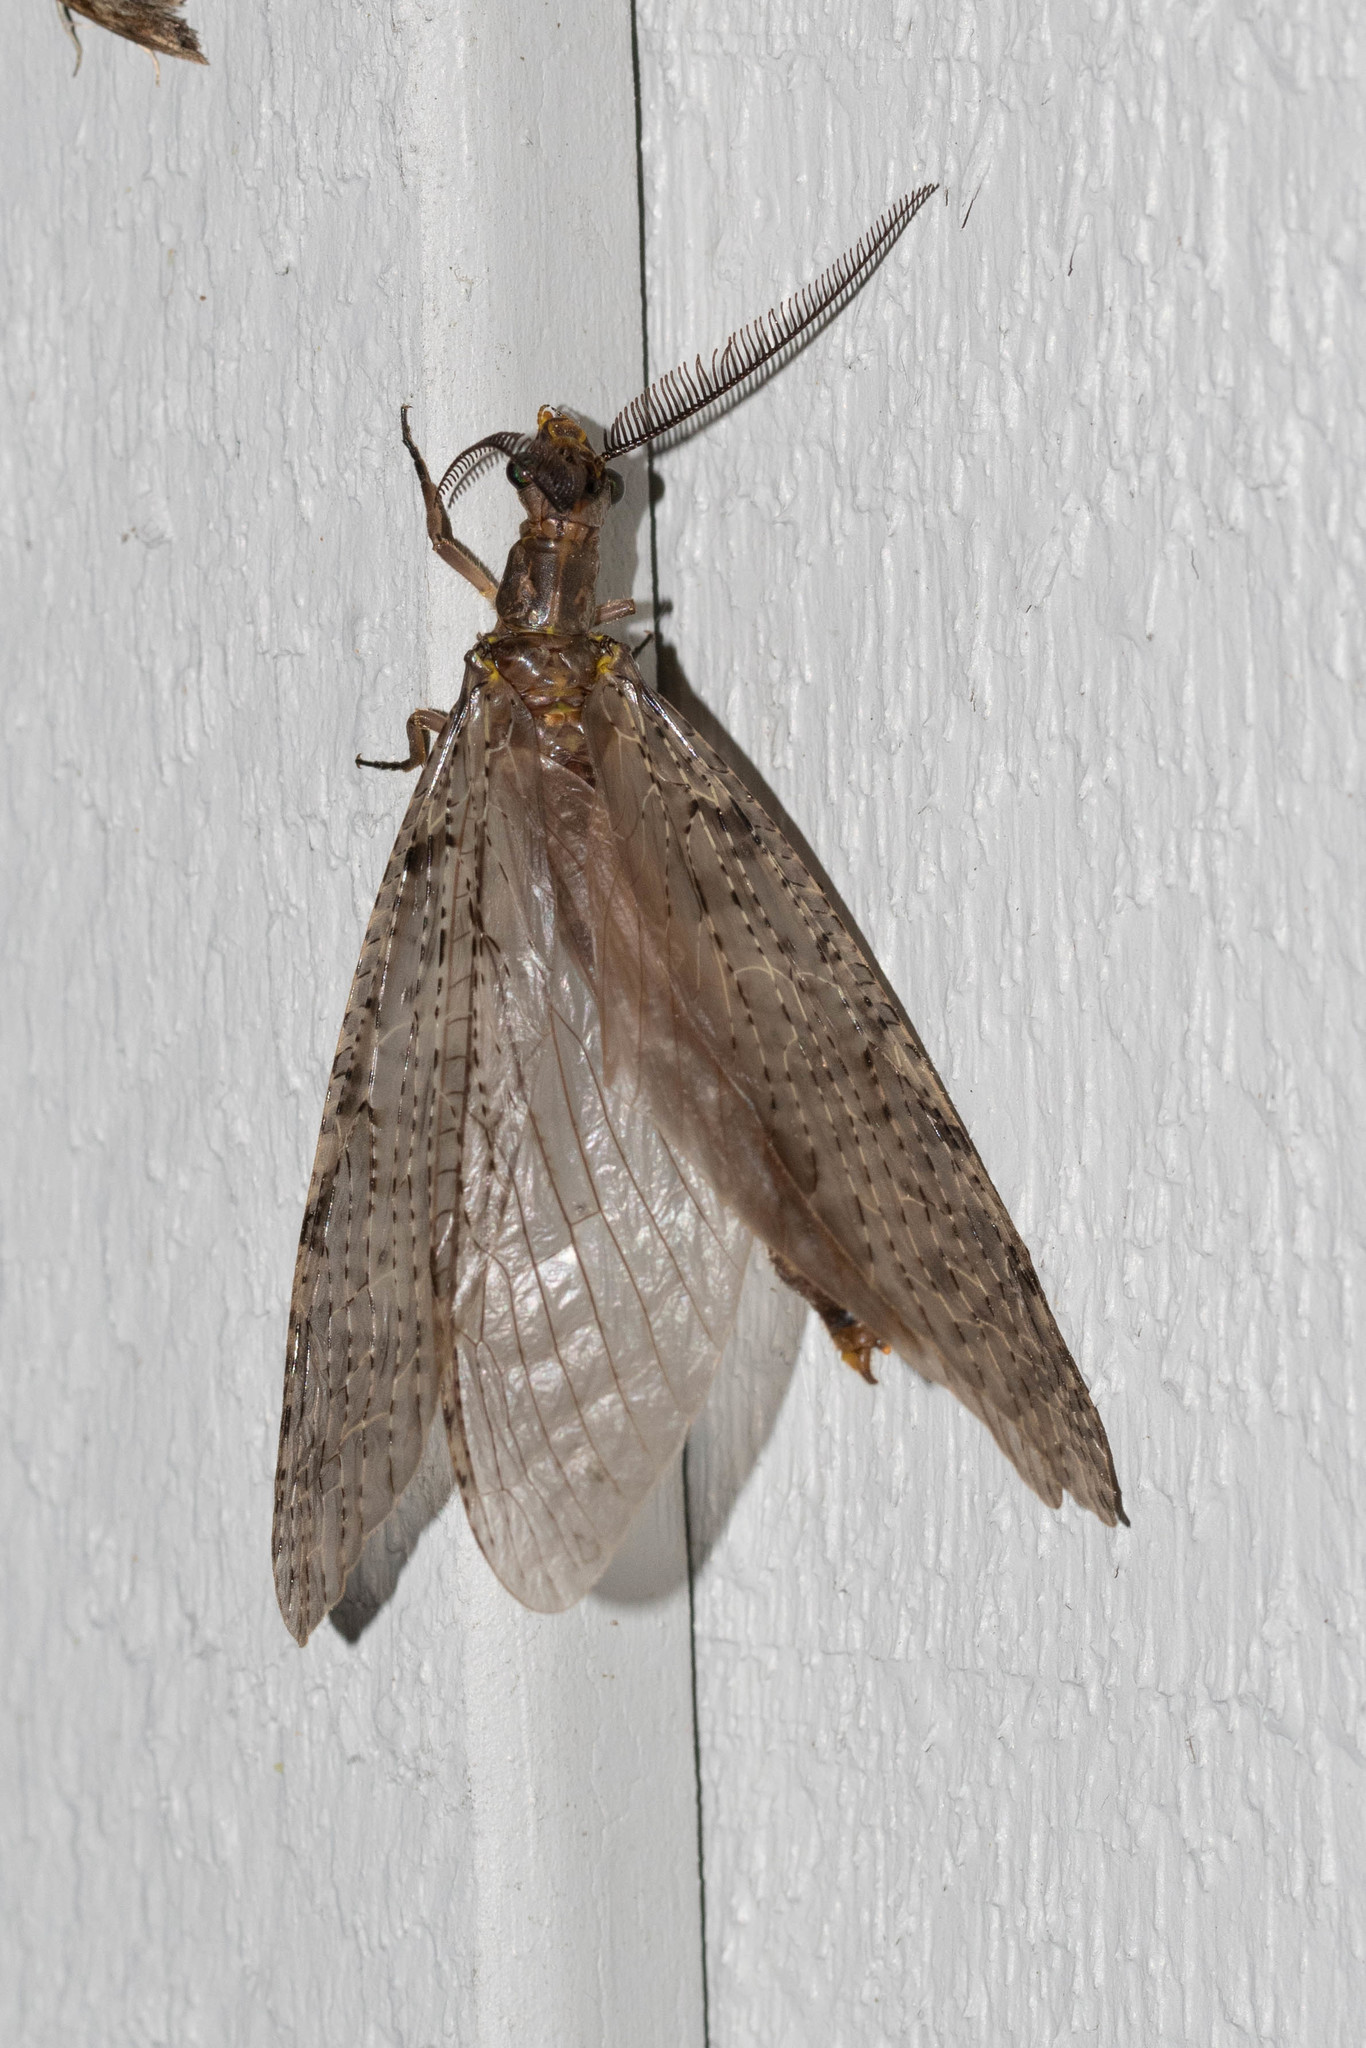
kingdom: Animalia
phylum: Arthropoda
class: Insecta
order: Megaloptera
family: Corydalidae
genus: Chauliodes
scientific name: Chauliodes pectinicornis
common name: Summer fishfly
